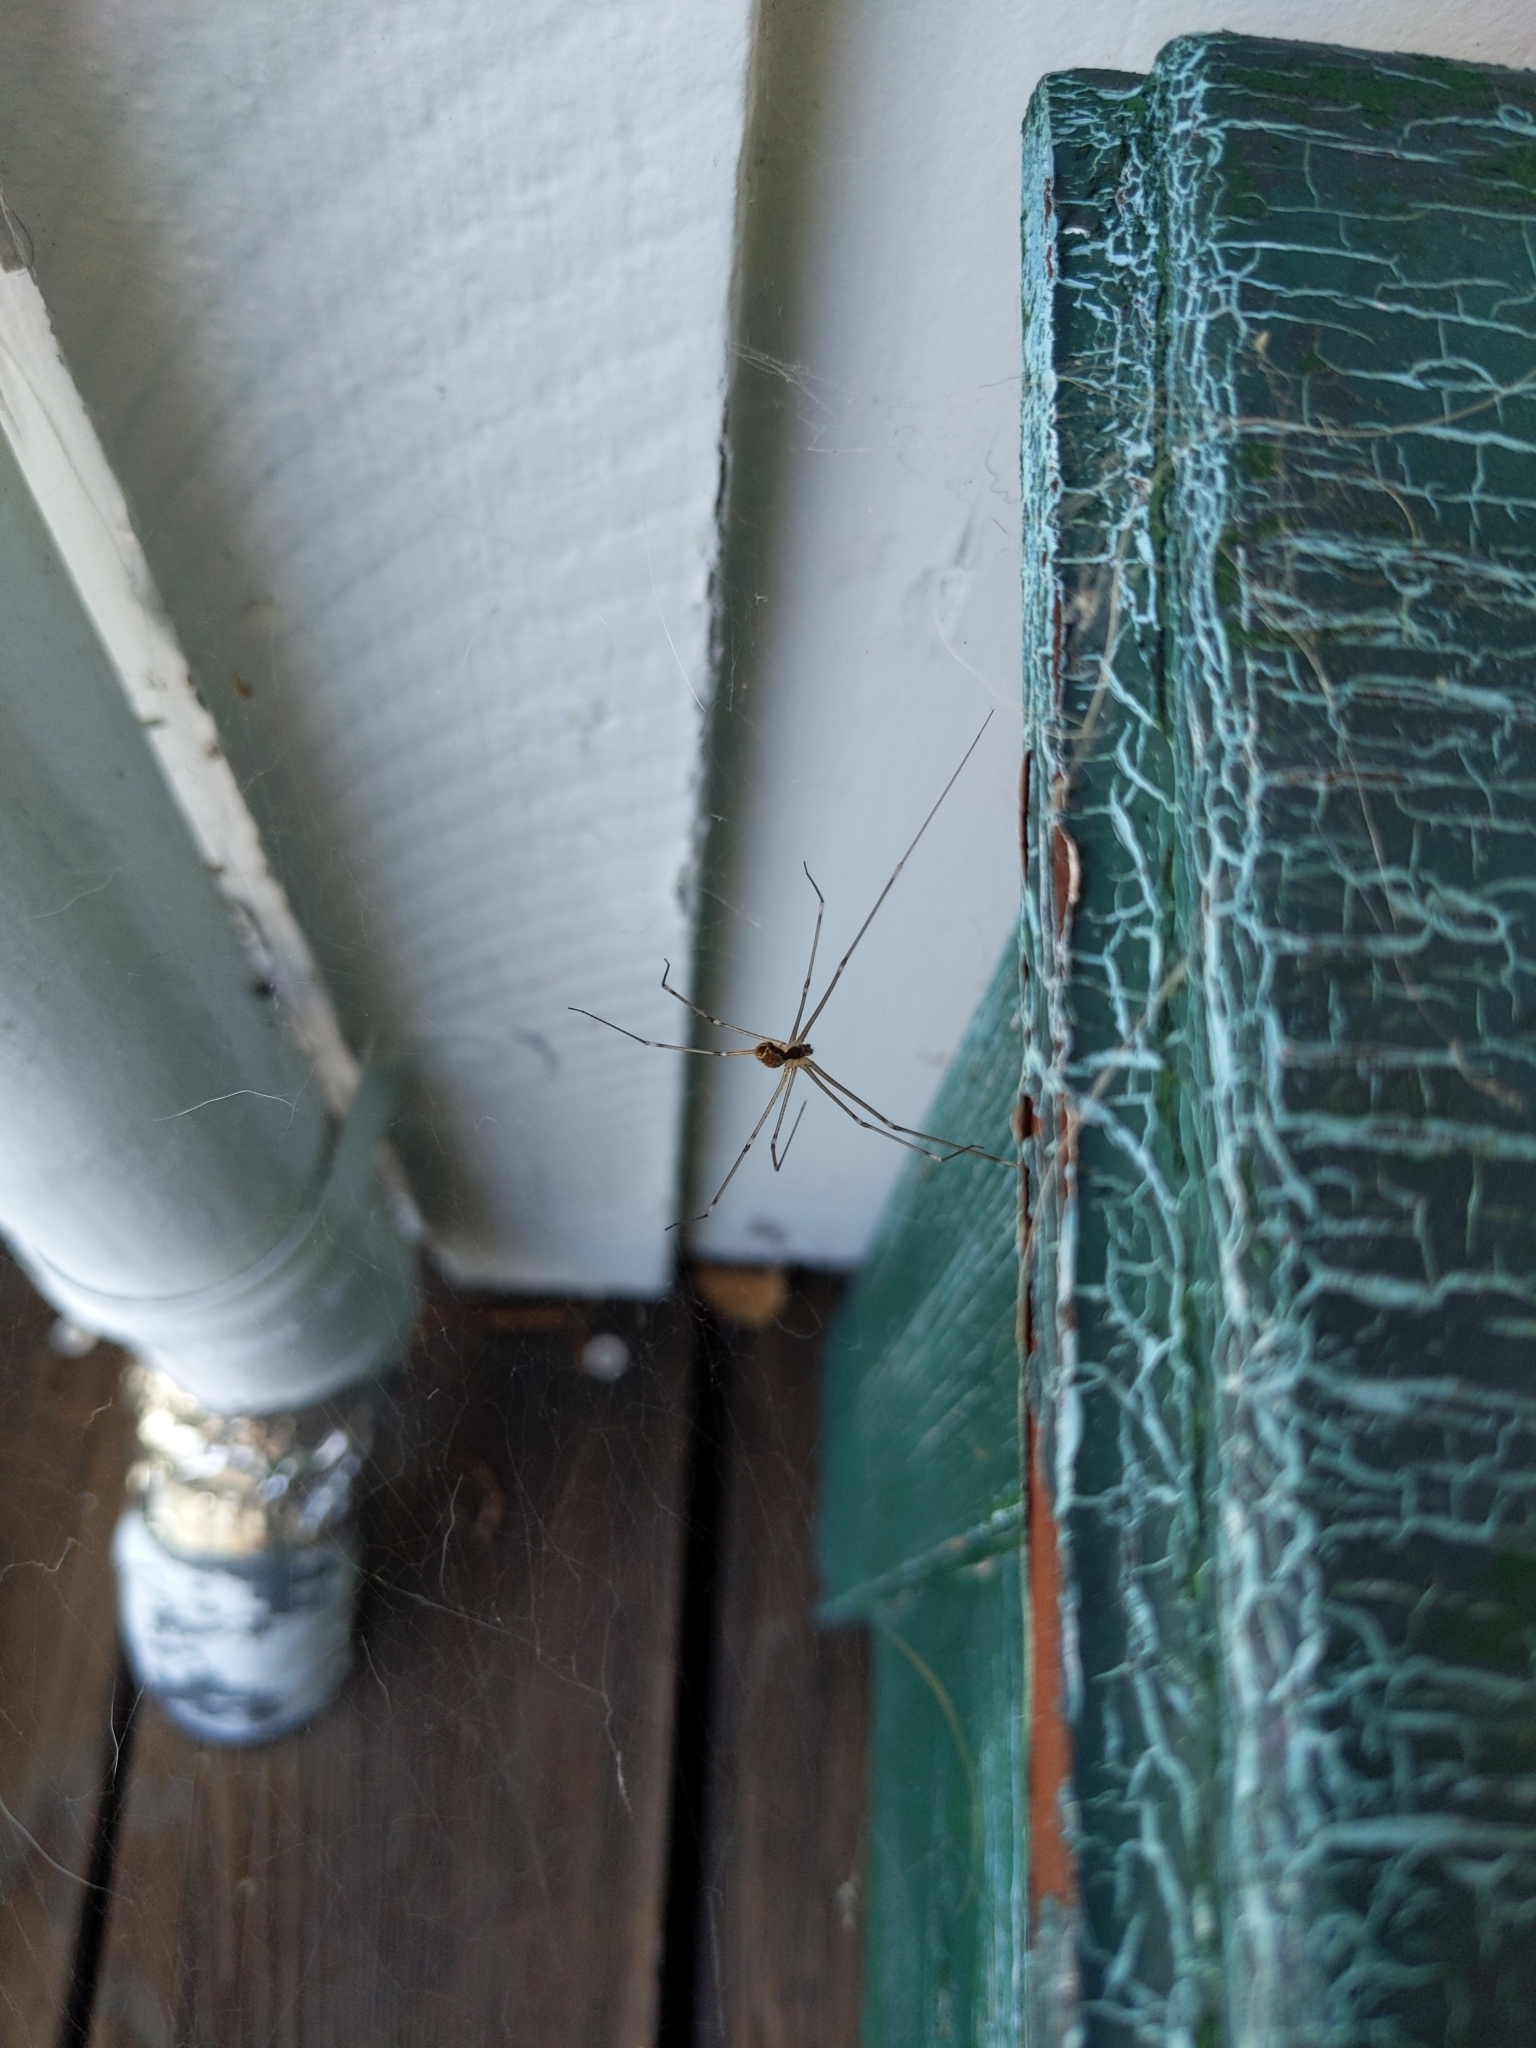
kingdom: Animalia
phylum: Arthropoda
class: Arachnida
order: Araneae
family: Pholcidae
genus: Holocnemus
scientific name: Holocnemus pluchei
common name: Marbled cellar spider
